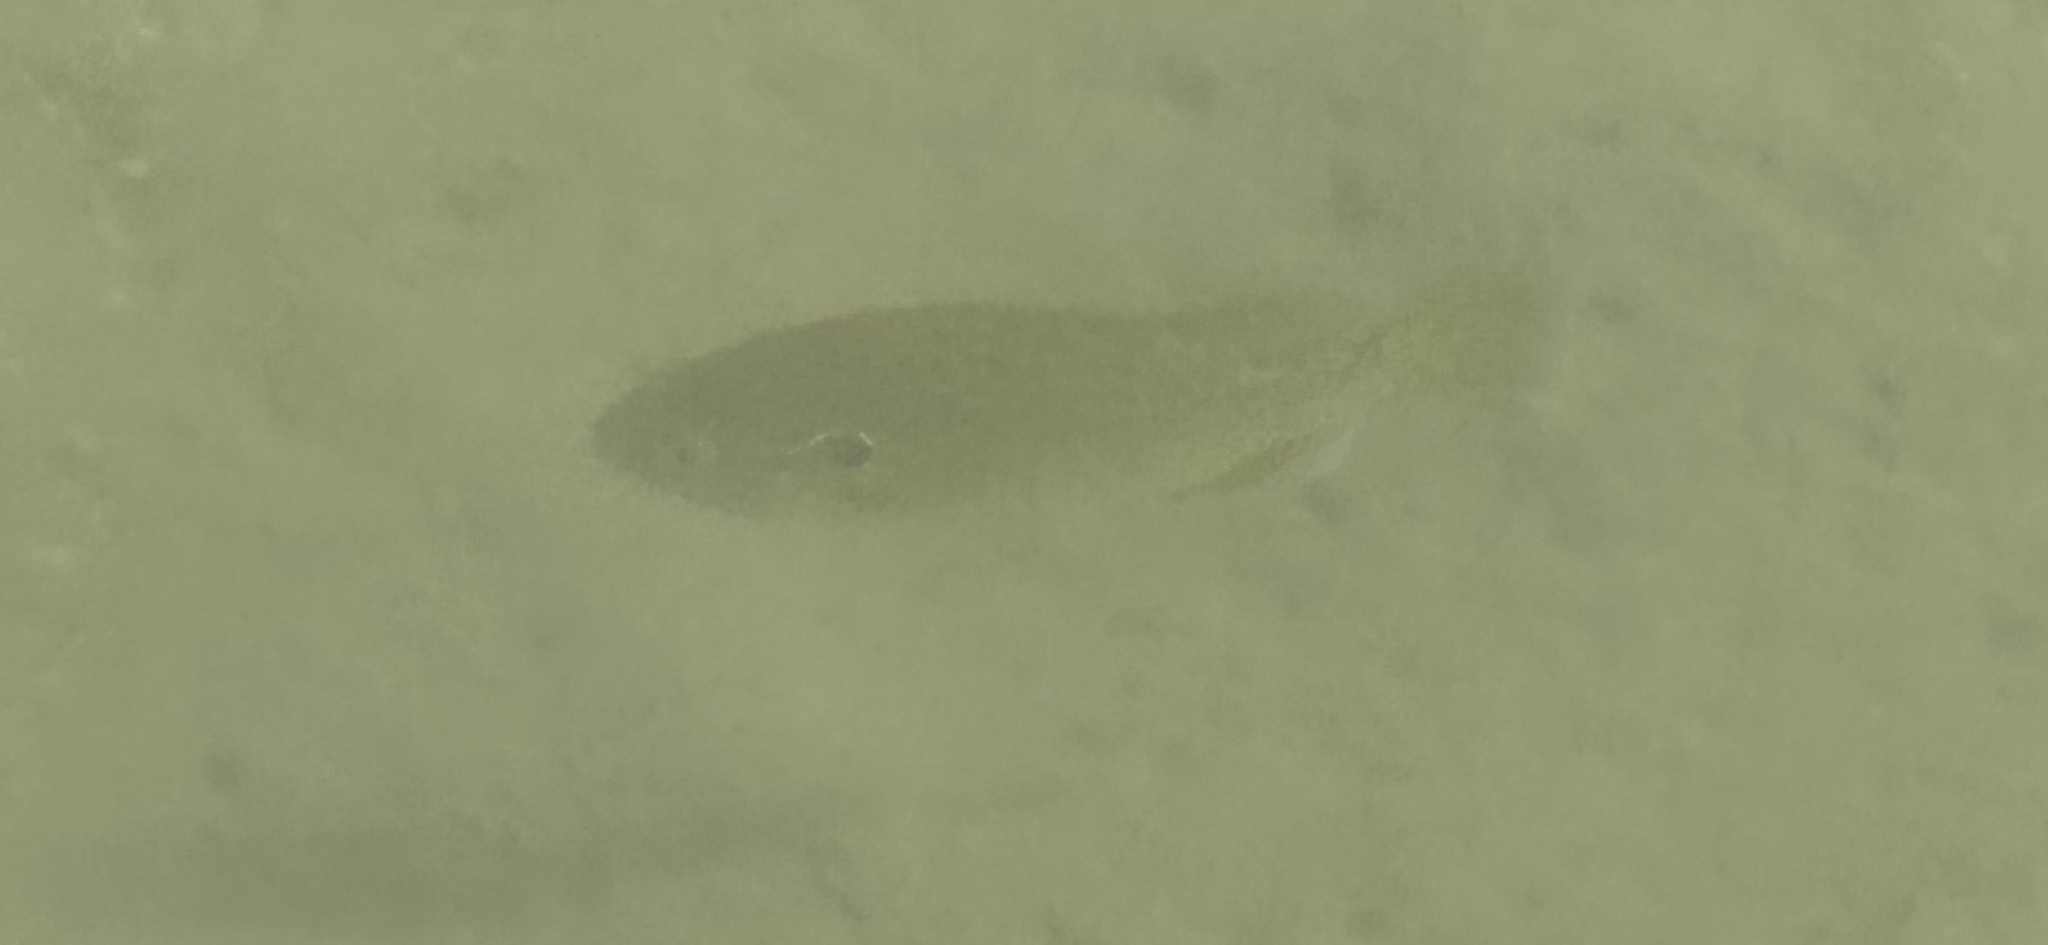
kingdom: Animalia
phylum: Chordata
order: Perciformes
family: Centrarchidae
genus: Lepomis
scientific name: Lepomis gibbosus
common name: Pumpkinseed
